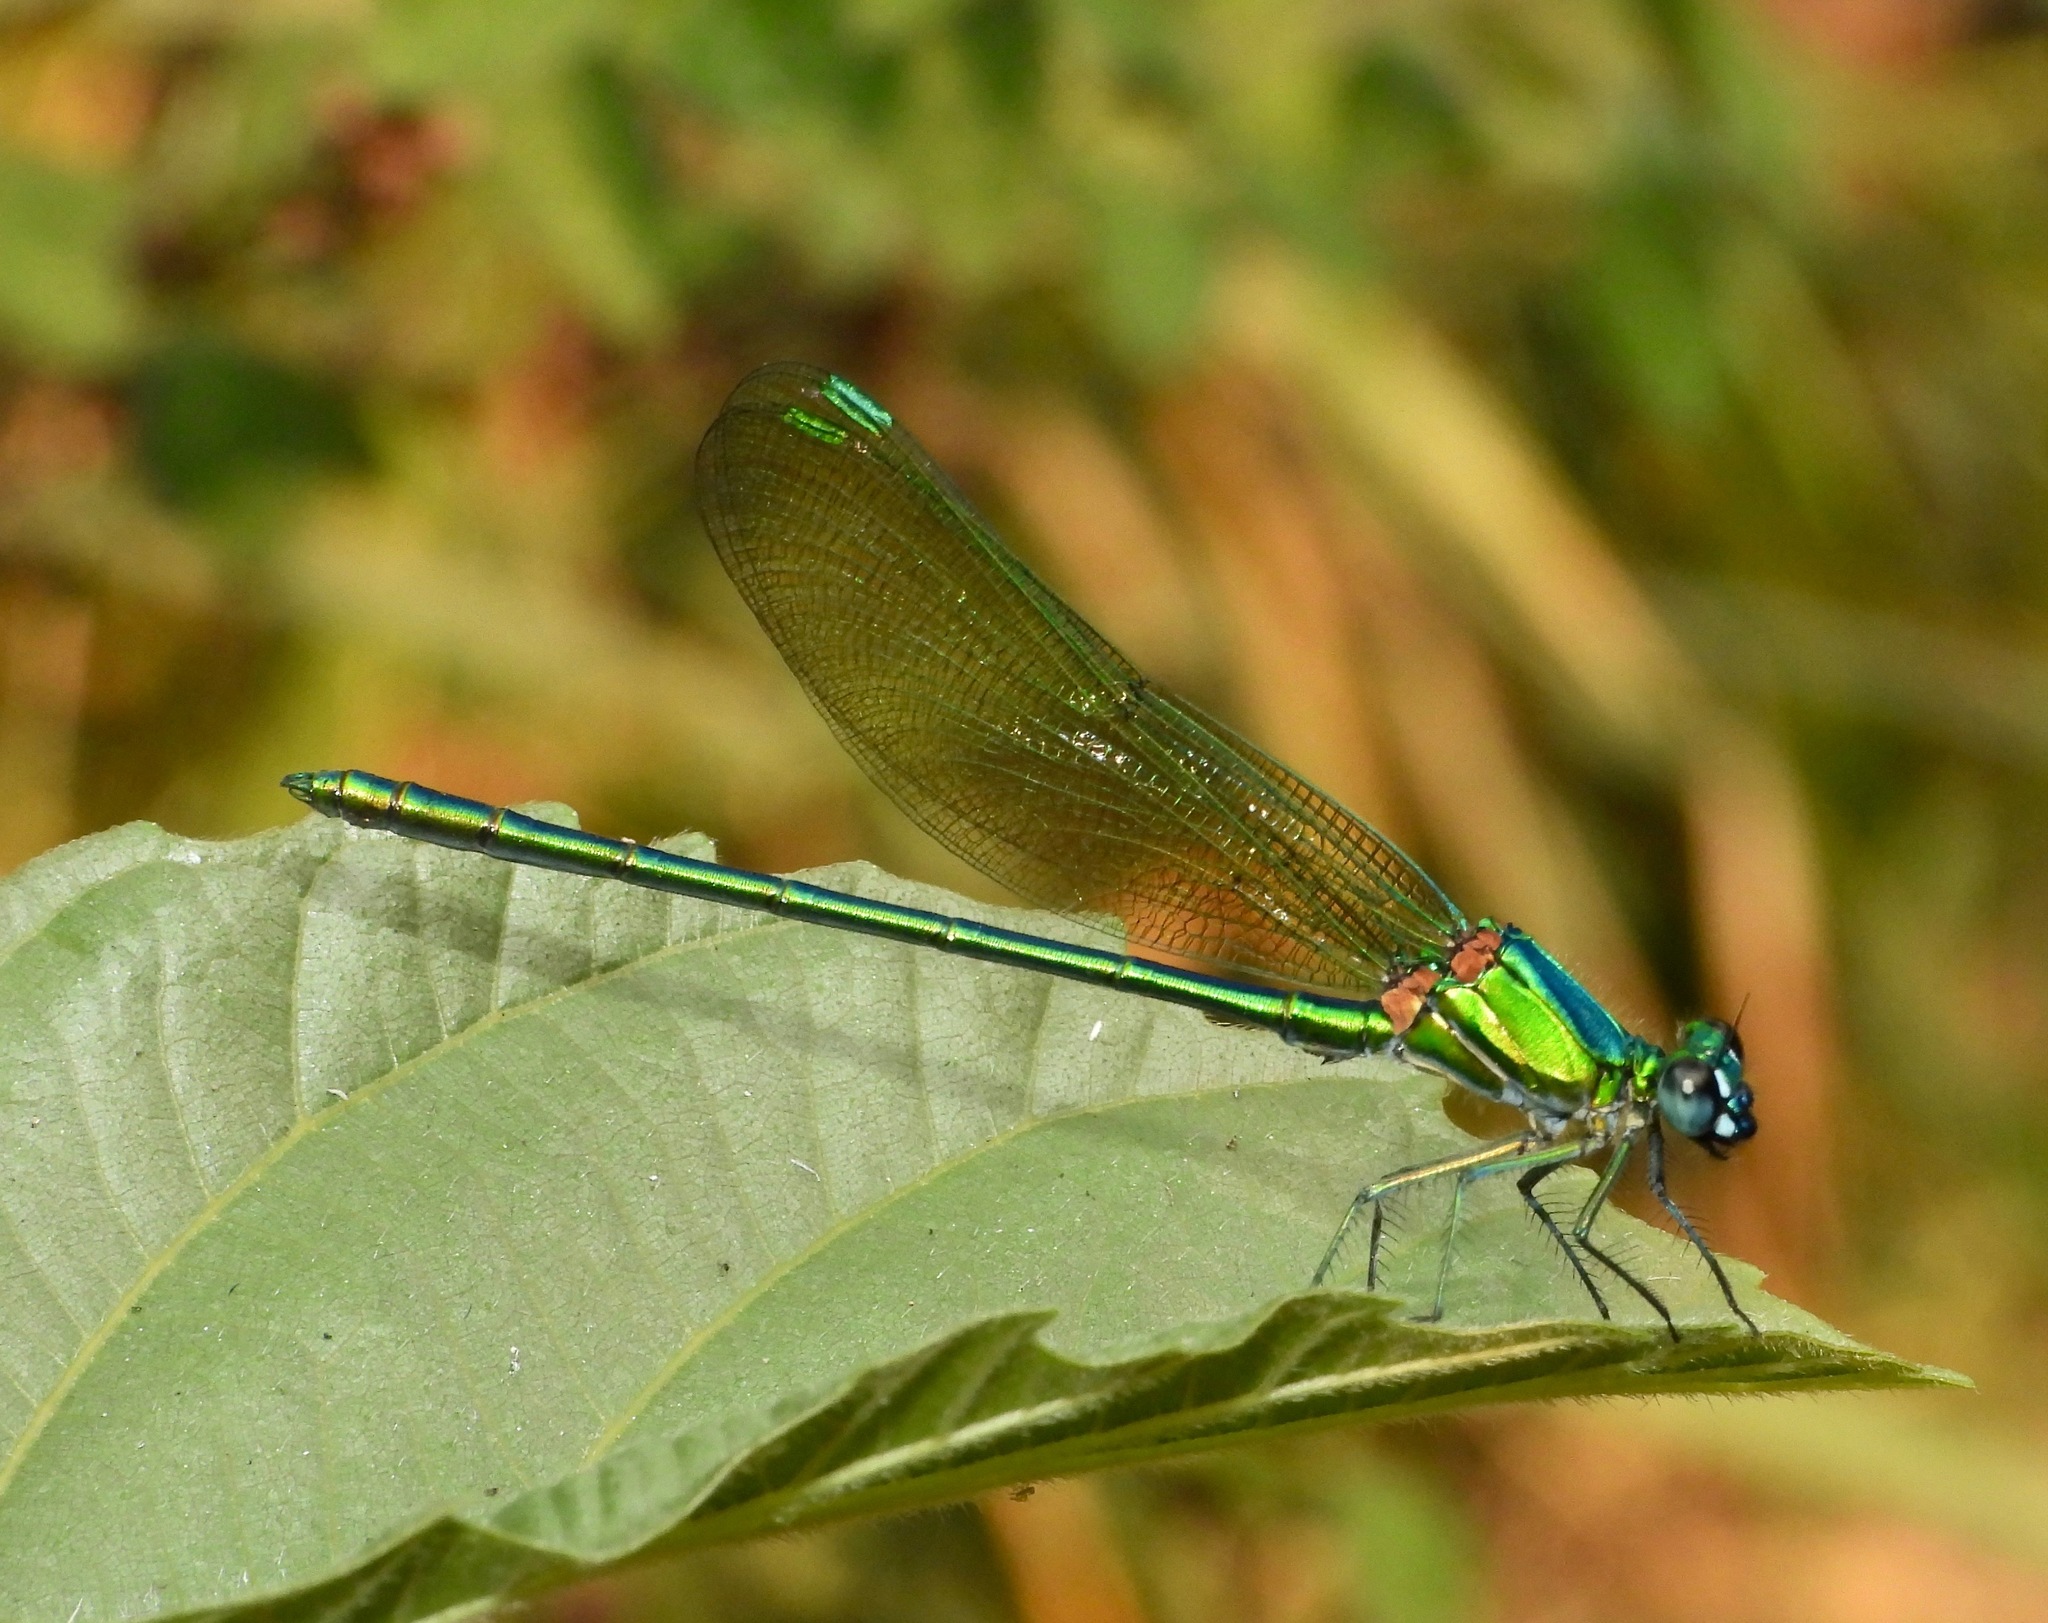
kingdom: Animalia
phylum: Arthropoda
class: Insecta
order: Odonata
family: Calopterygidae
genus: Umma
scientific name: Umma electa
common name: Metallic sparklewing
